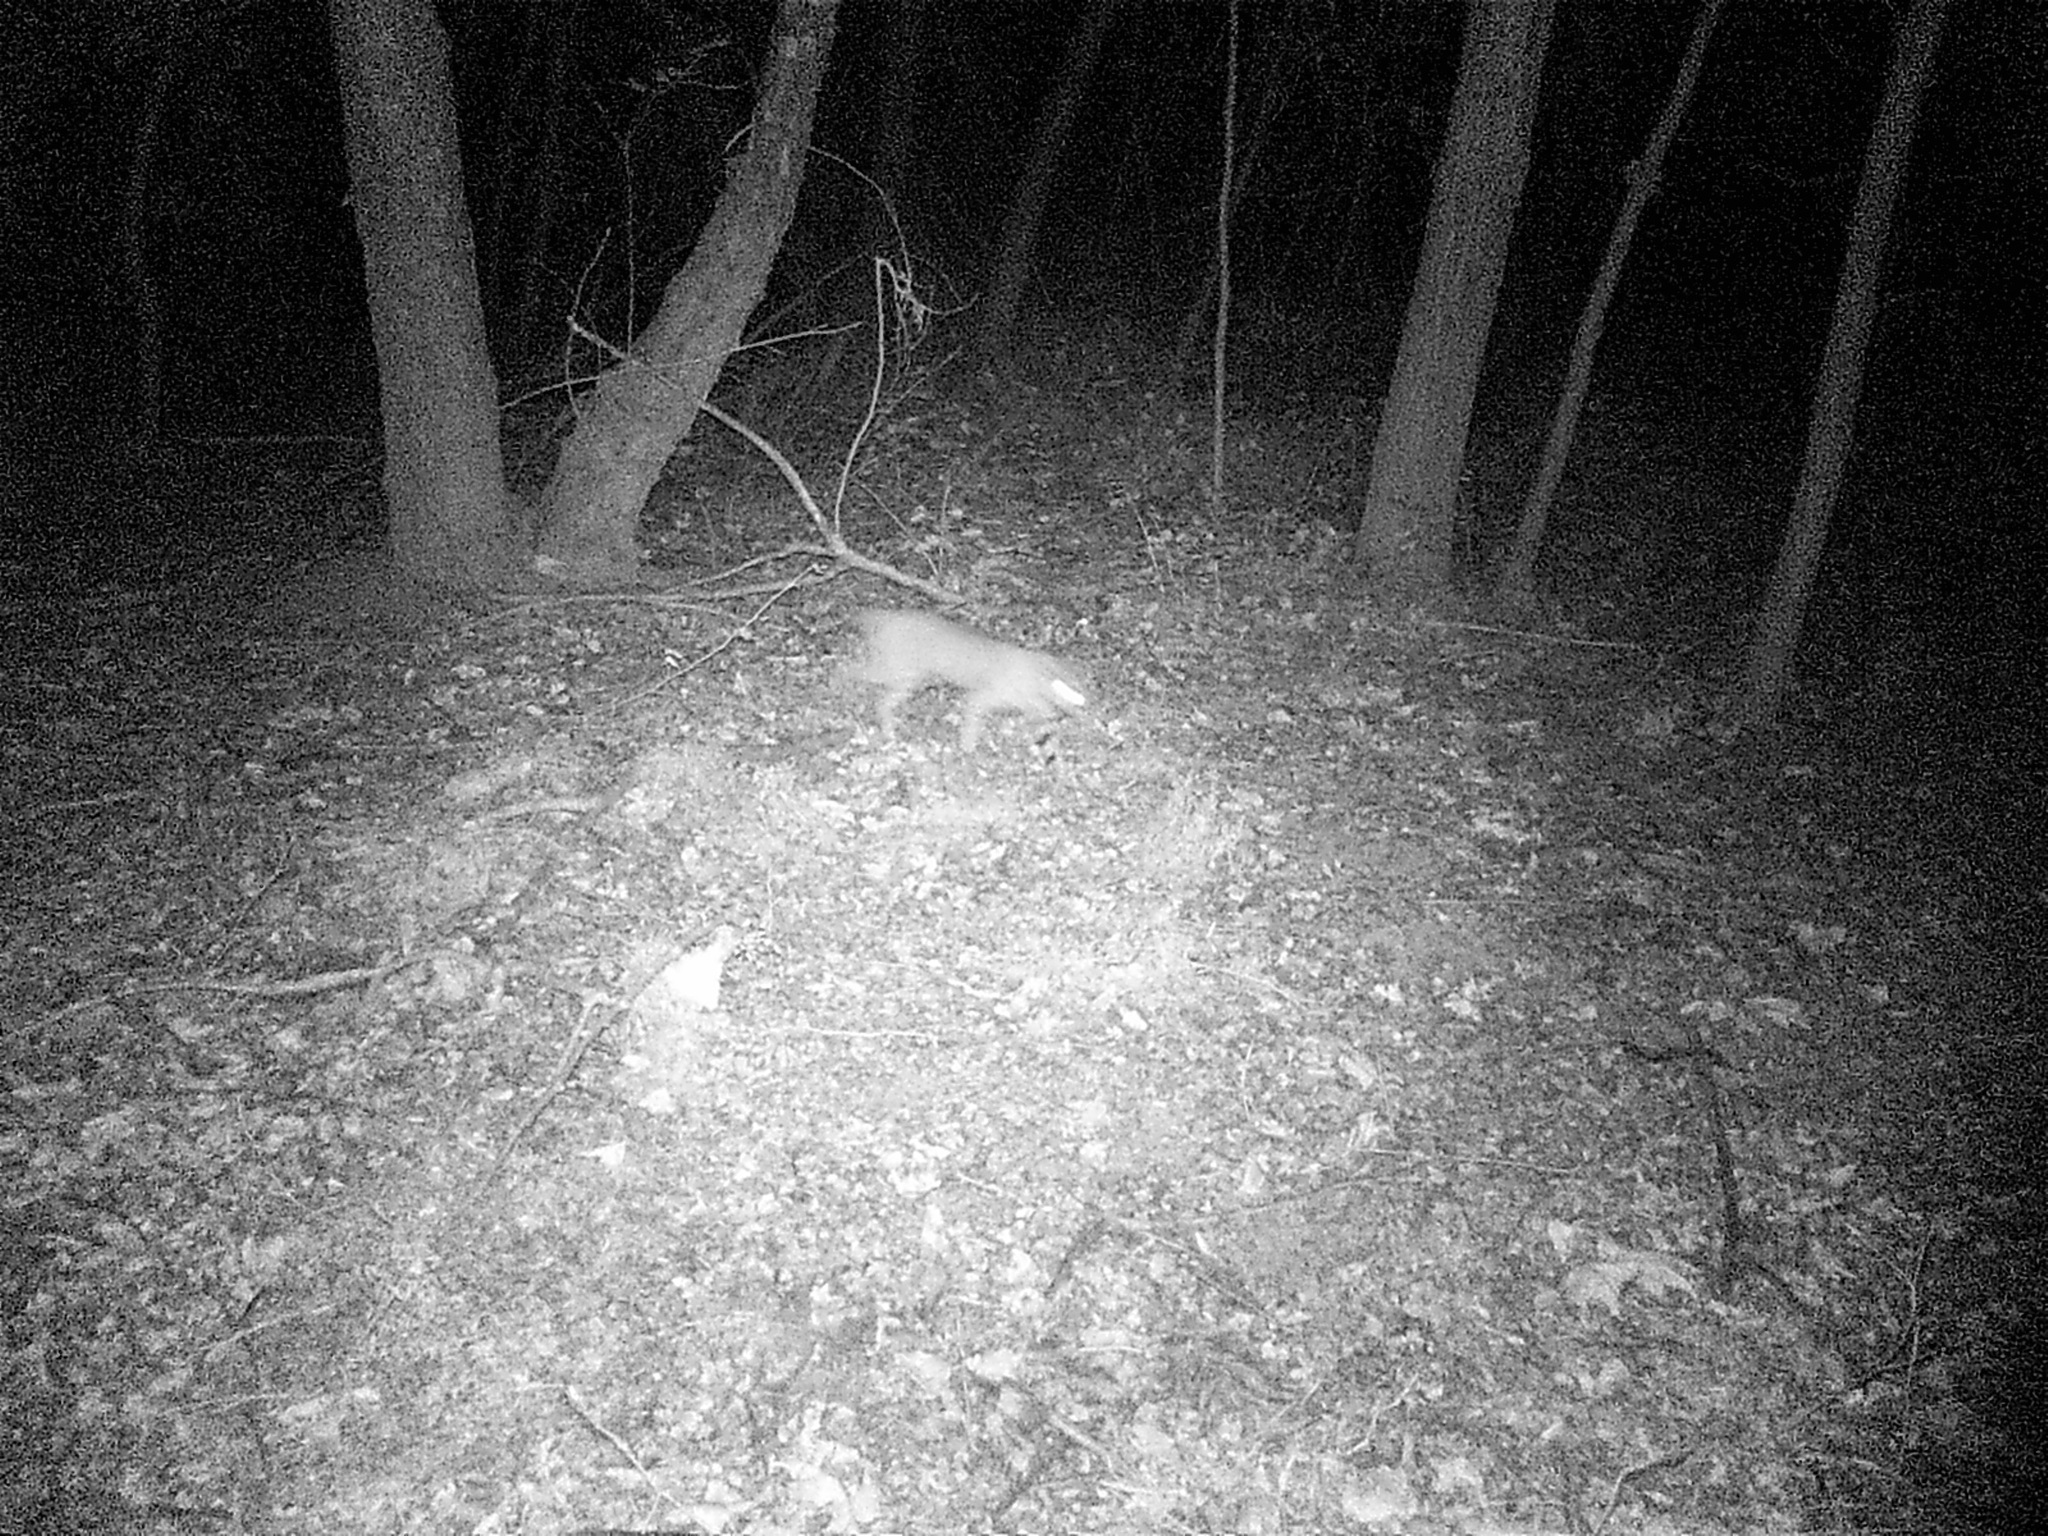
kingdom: Animalia
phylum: Chordata
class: Mammalia
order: Carnivora
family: Felidae
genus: Lynx
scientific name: Lynx rufus
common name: Bobcat
